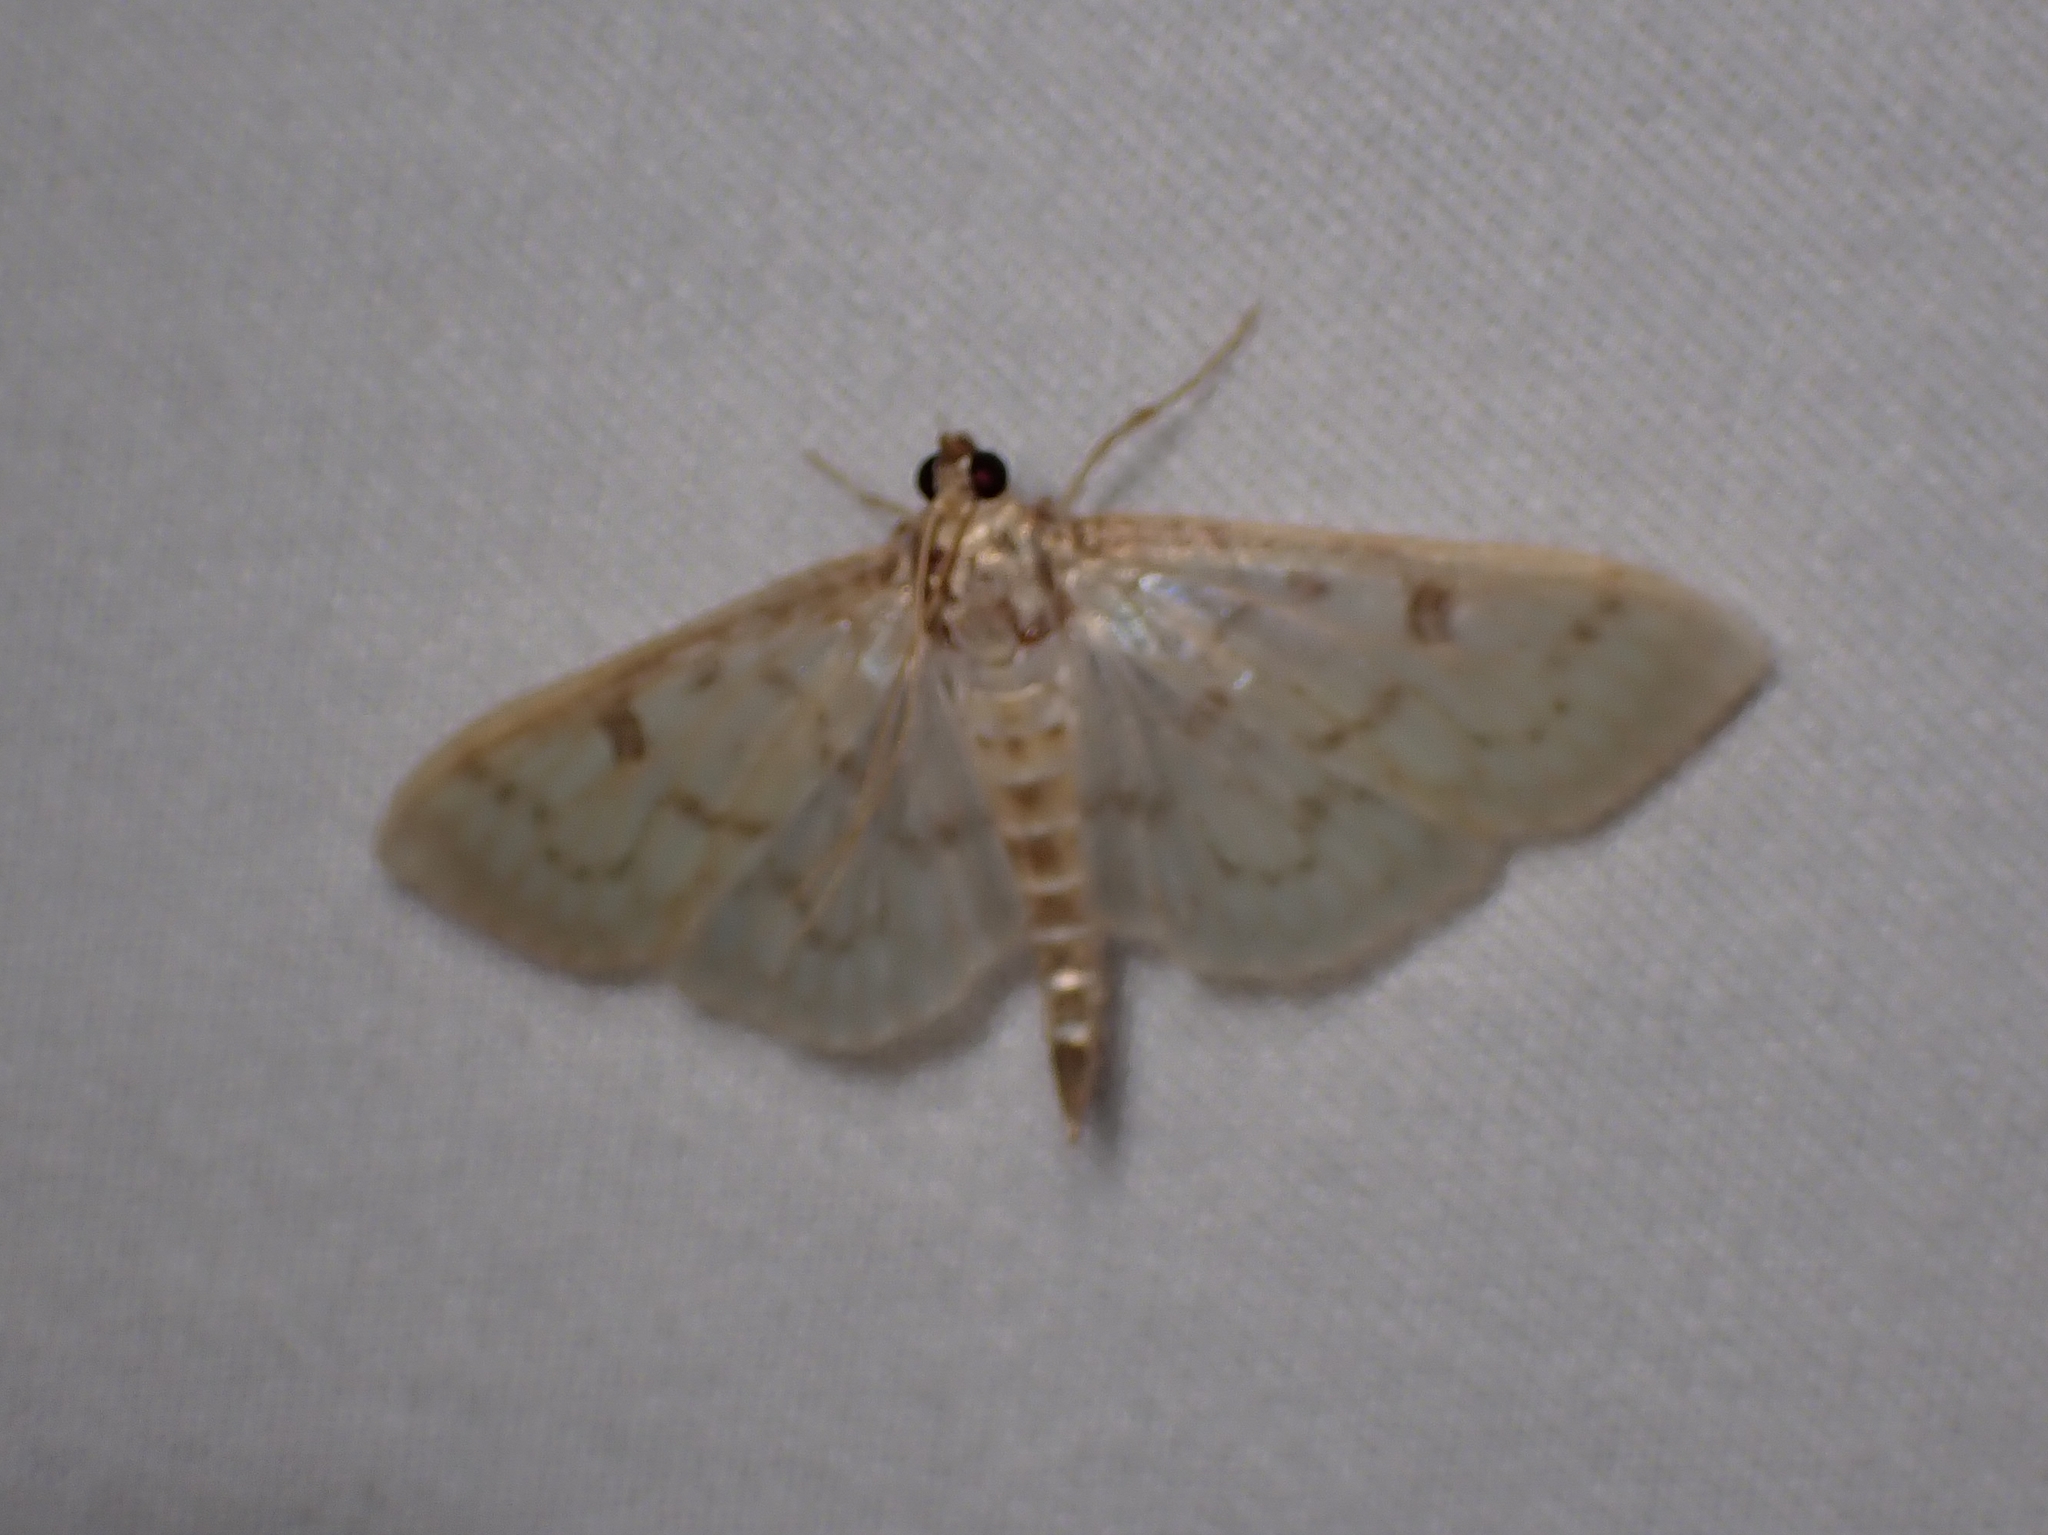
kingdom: Animalia
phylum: Arthropoda
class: Insecta
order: Lepidoptera
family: Crambidae
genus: Herpetogramma
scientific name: Herpetogramma aquilonalis
